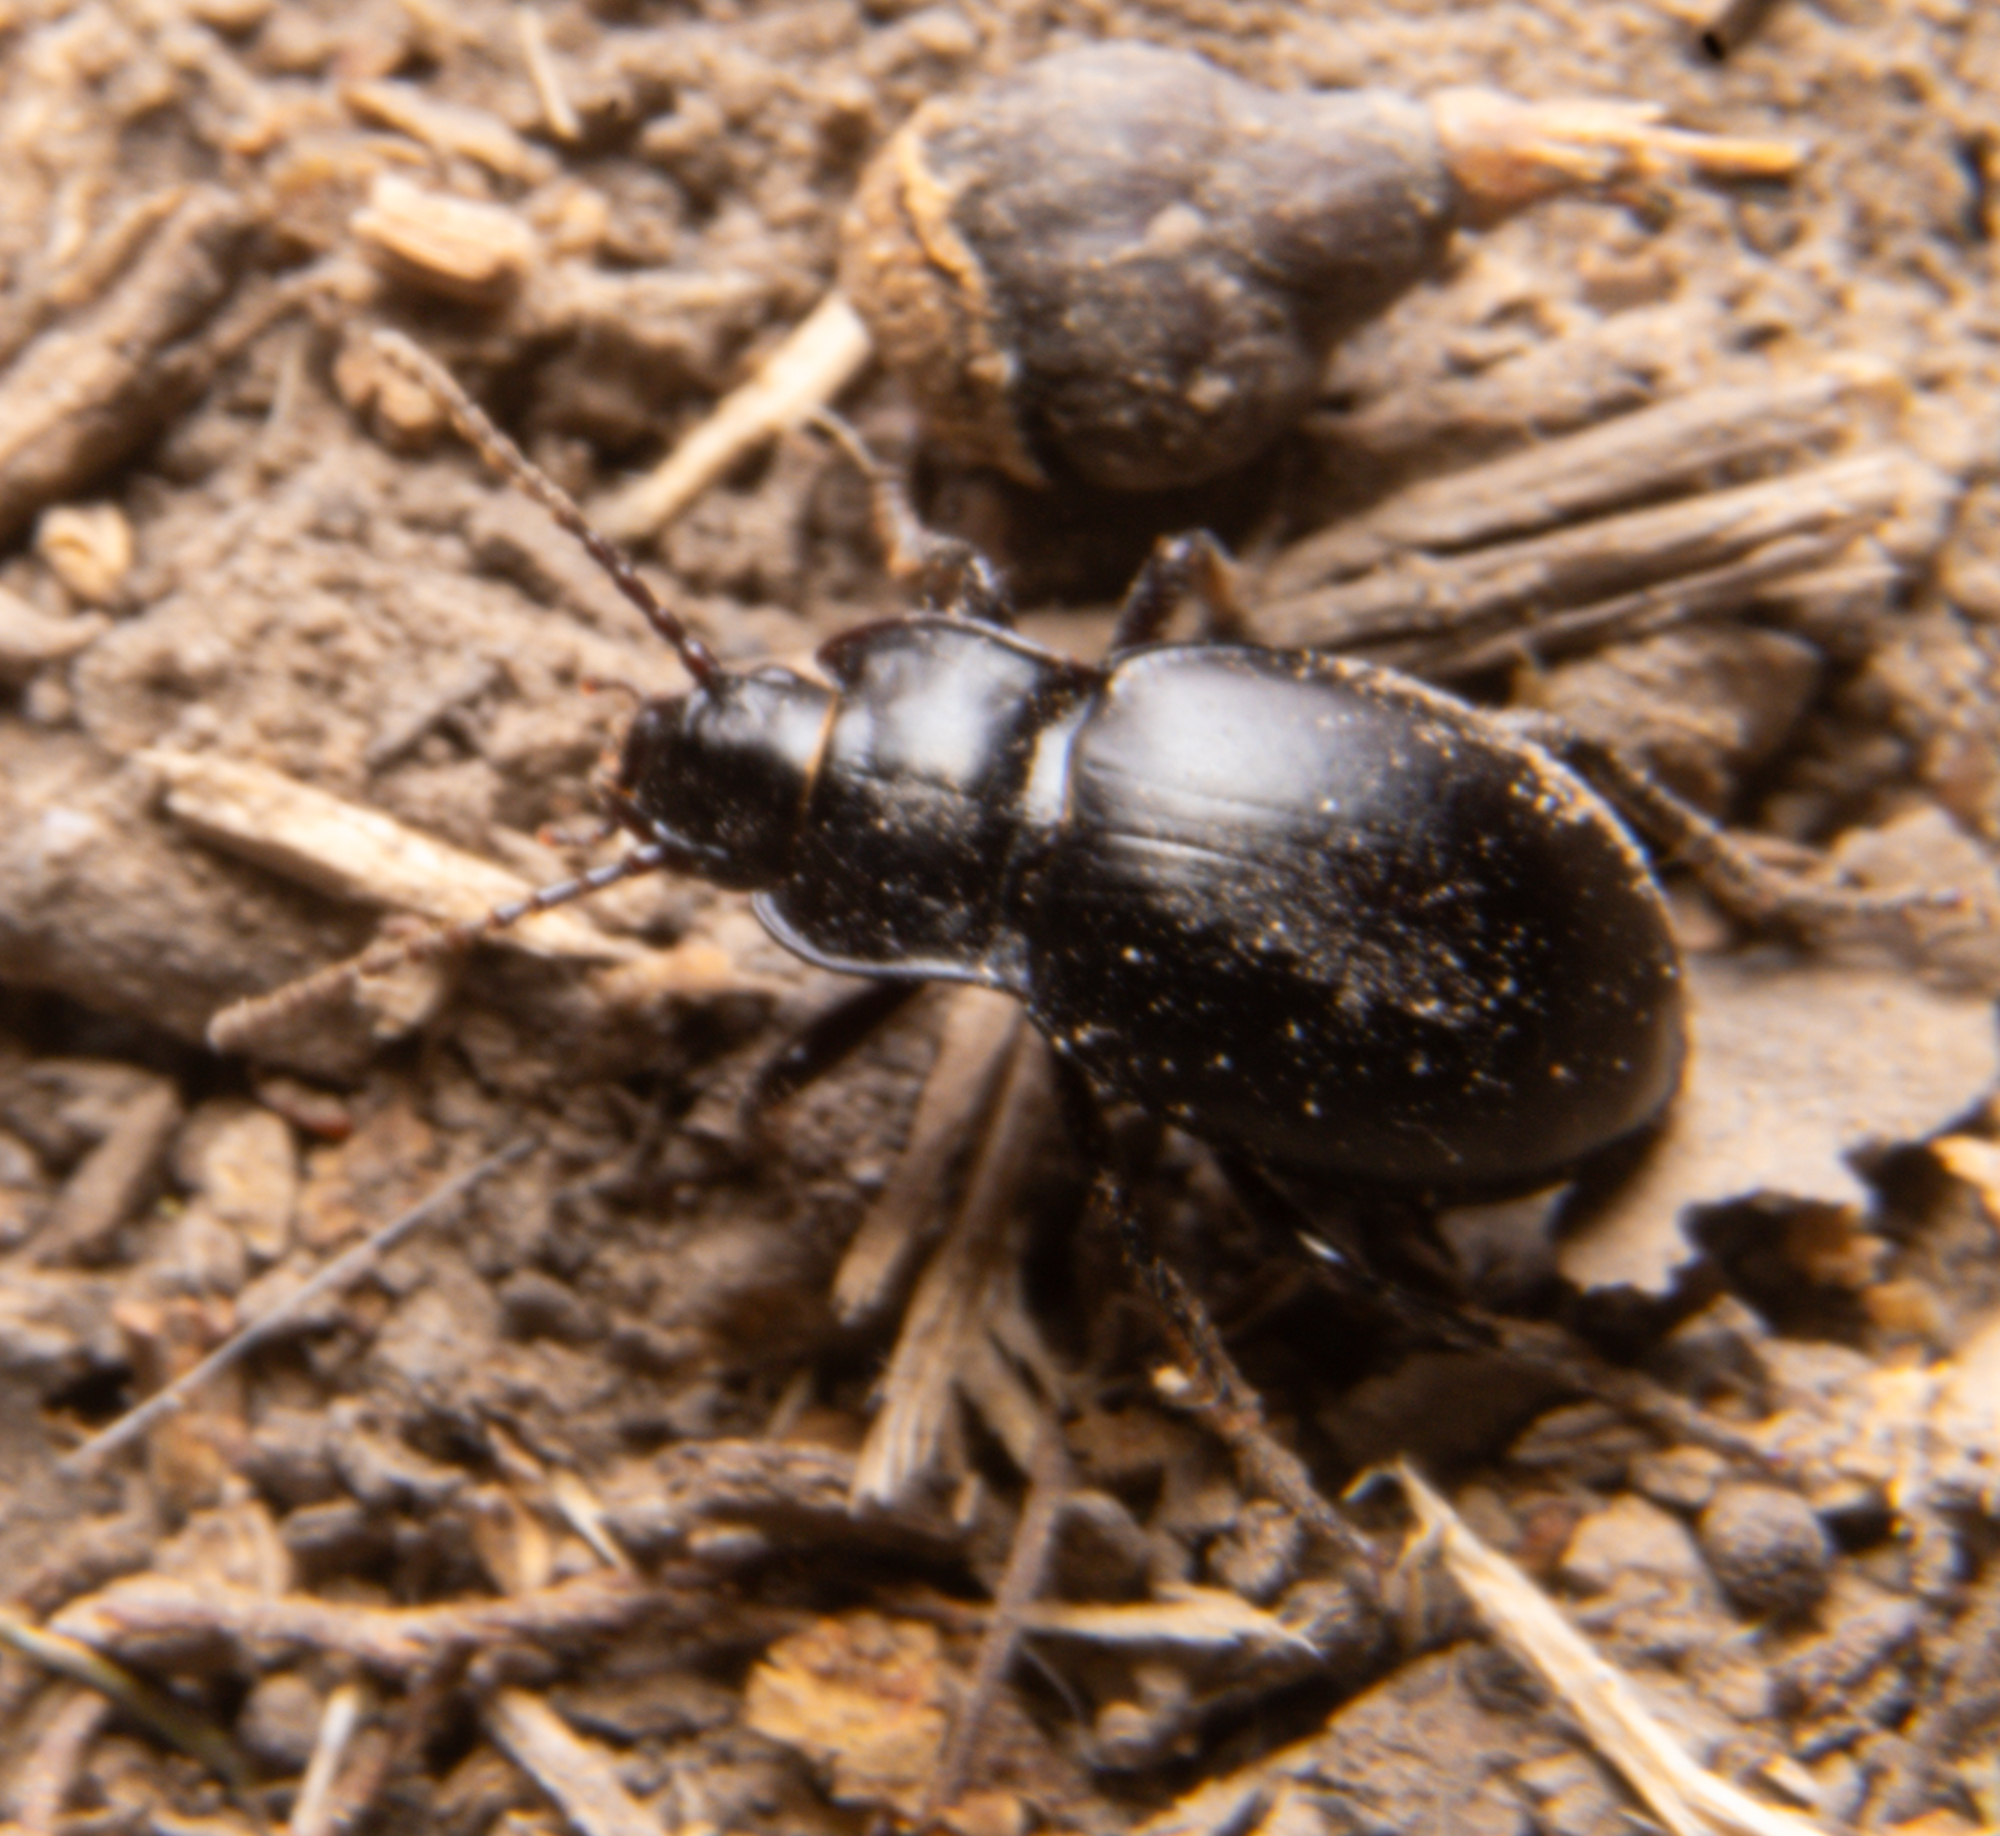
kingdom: Animalia
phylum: Arthropoda
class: Insecta
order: Coleoptera
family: Carabidae
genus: Metrius
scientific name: Metrius contractus
